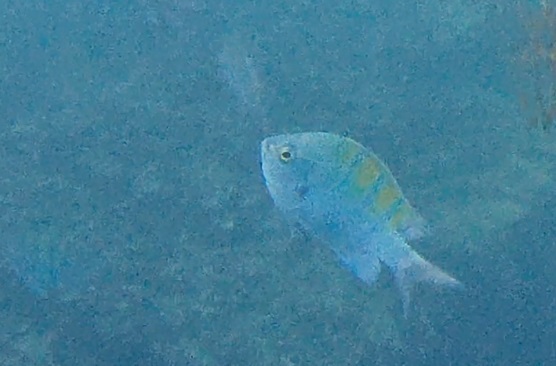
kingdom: Animalia
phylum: Chordata
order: Perciformes
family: Pomacentridae
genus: Abudefduf
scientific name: Abudefduf troschelii
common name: Panamic sergeant major
